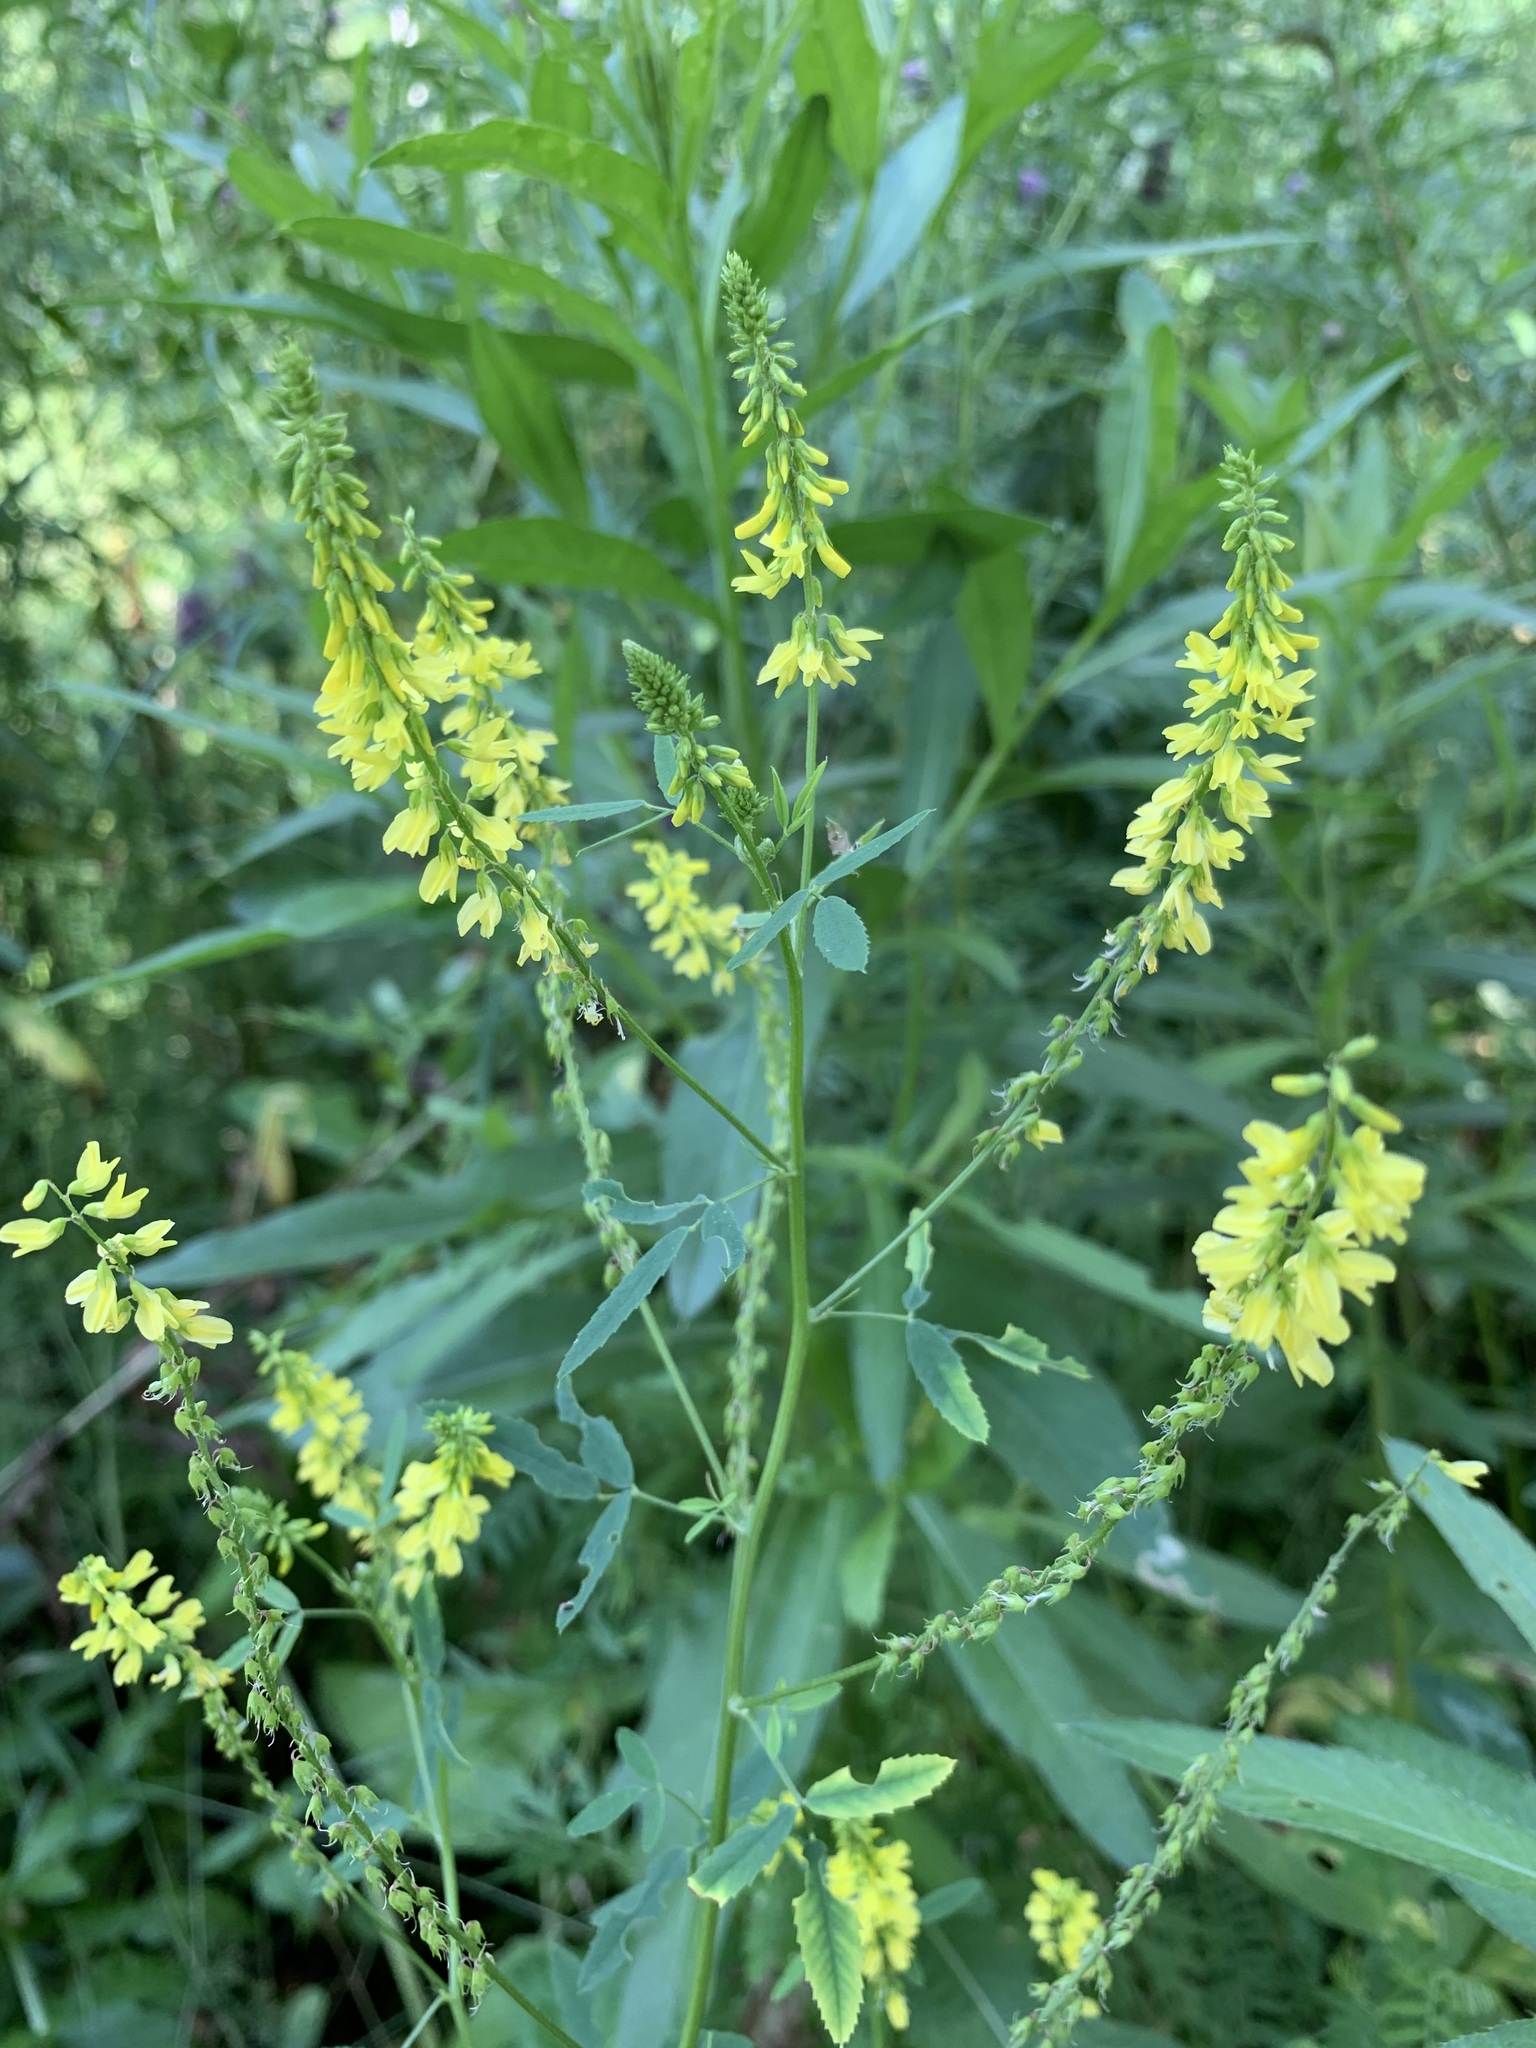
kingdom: Plantae
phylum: Tracheophyta
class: Magnoliopsida
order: Fabales
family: Fabaceae
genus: Melilotus
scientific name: Melilotus officinalis
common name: Sweetclover
